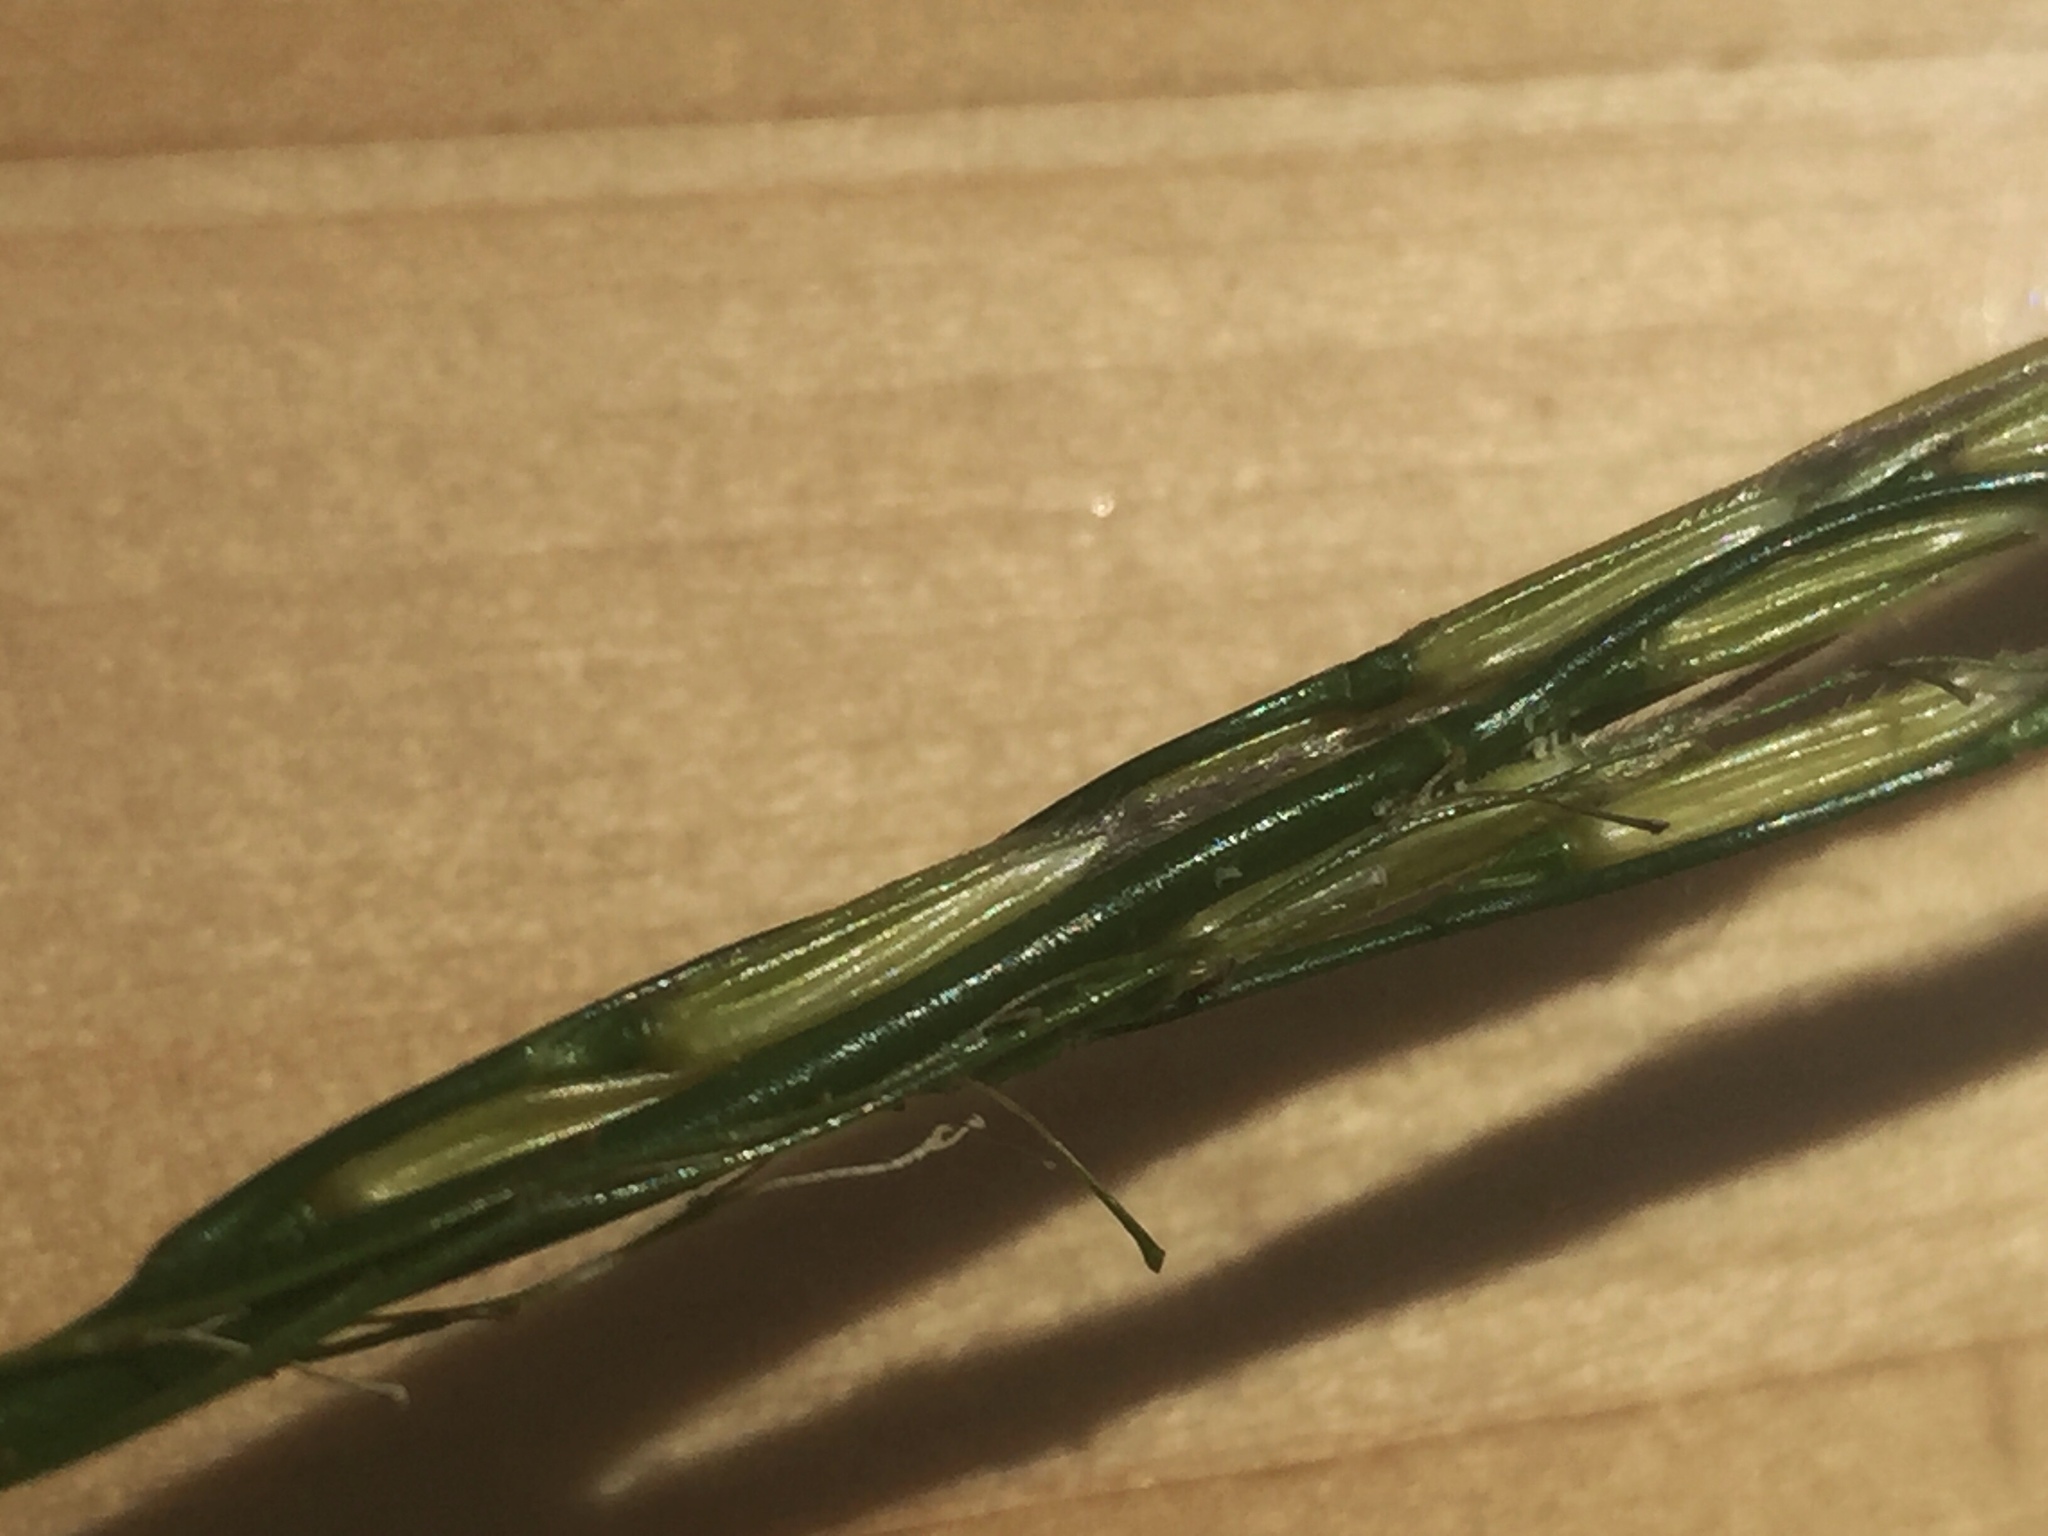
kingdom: Plantae
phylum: Tracheophyta
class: Liliopsida
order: Poales
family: Poaceae
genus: Zizania
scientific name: Zizania palustris
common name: Northern wild rice
